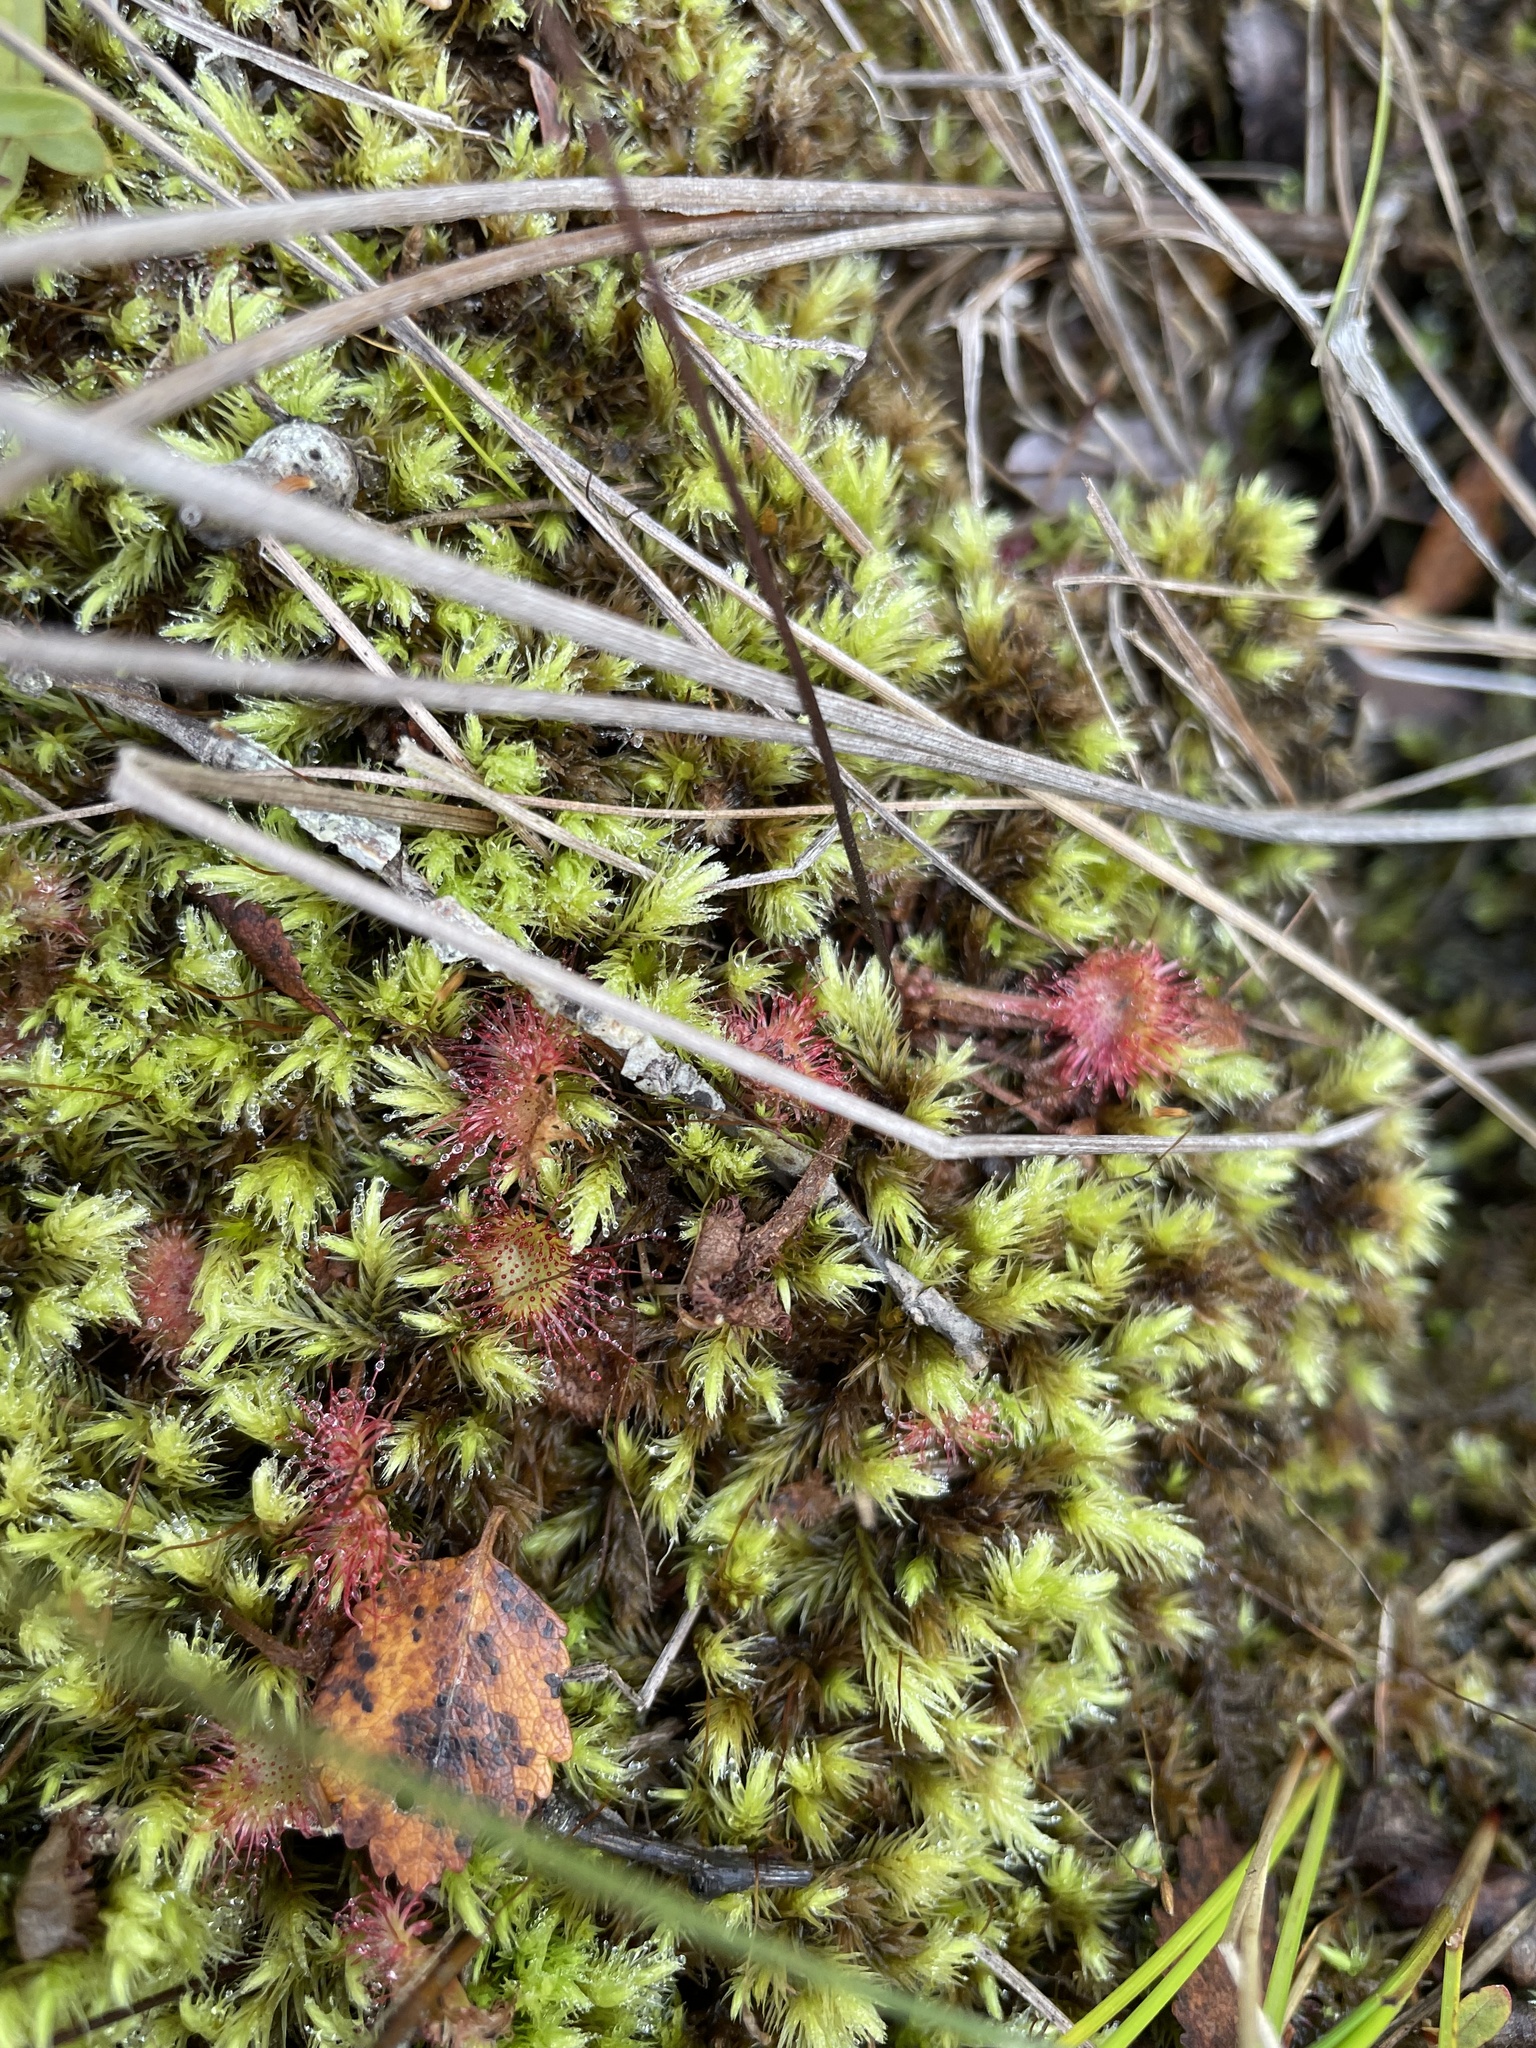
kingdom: Plantae
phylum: Tracheophyta
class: Magnoliopsida
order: Caryophyllales
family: Droseraceae
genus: Drosera
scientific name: Drosera rotundifolia
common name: Round-leaved sundew
